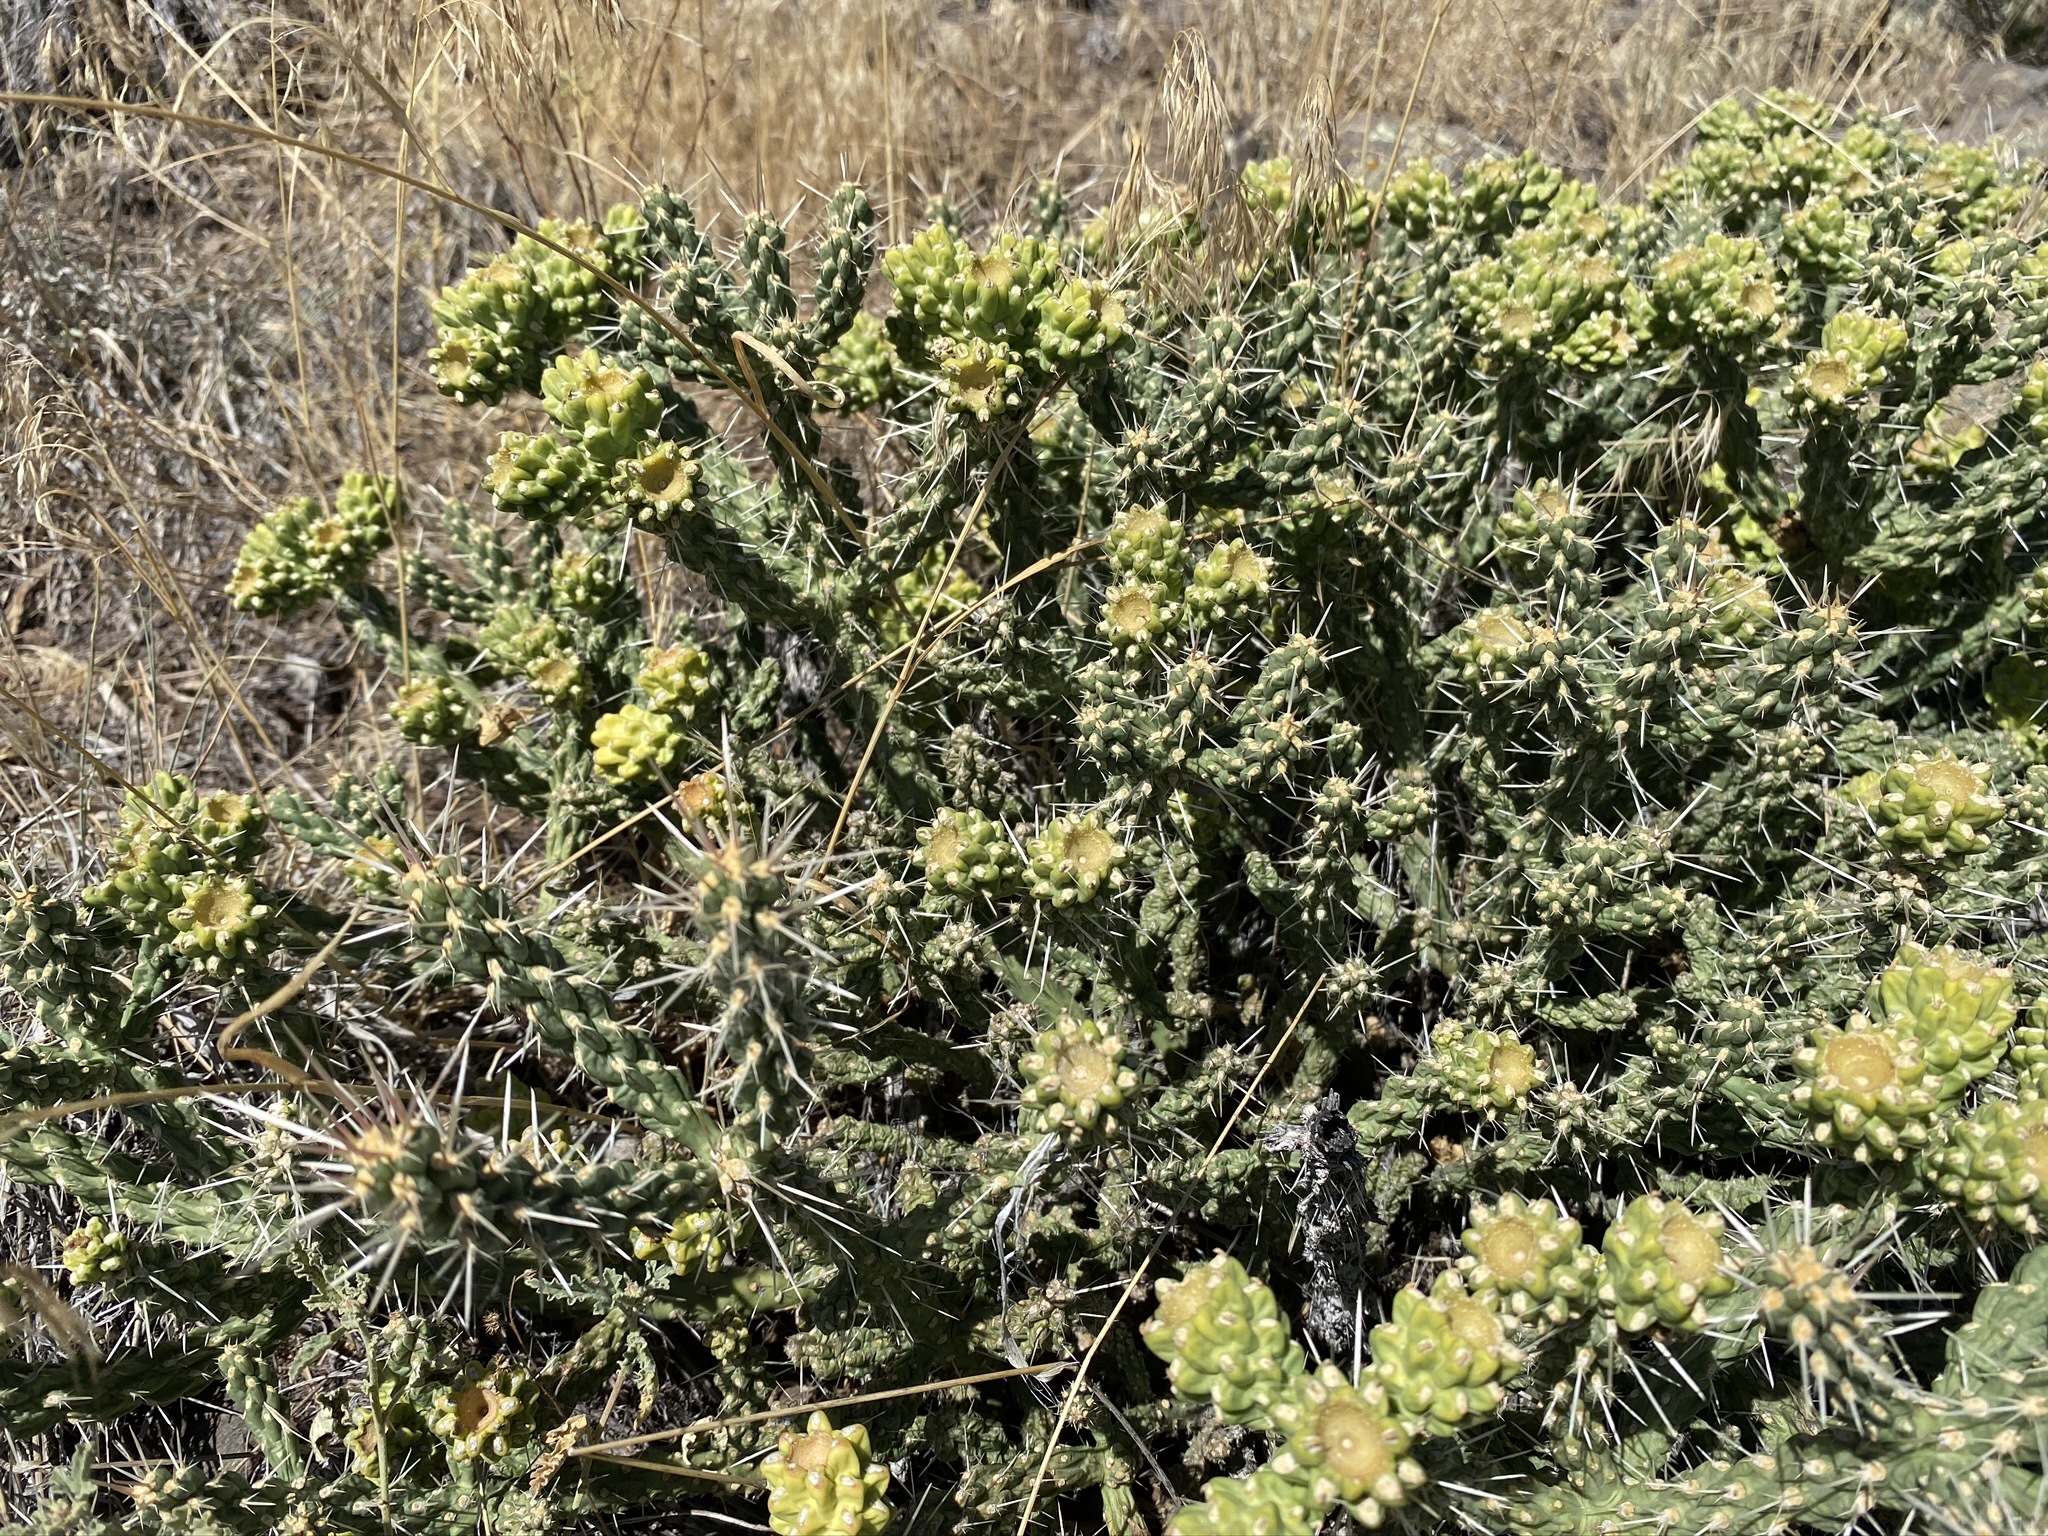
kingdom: Plantae
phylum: Tracheophyta
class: Magnoliopsida
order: Caryophyllales
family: Cactaceae
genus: Cylindropuntia
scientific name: Cylindropuntia whipplei
